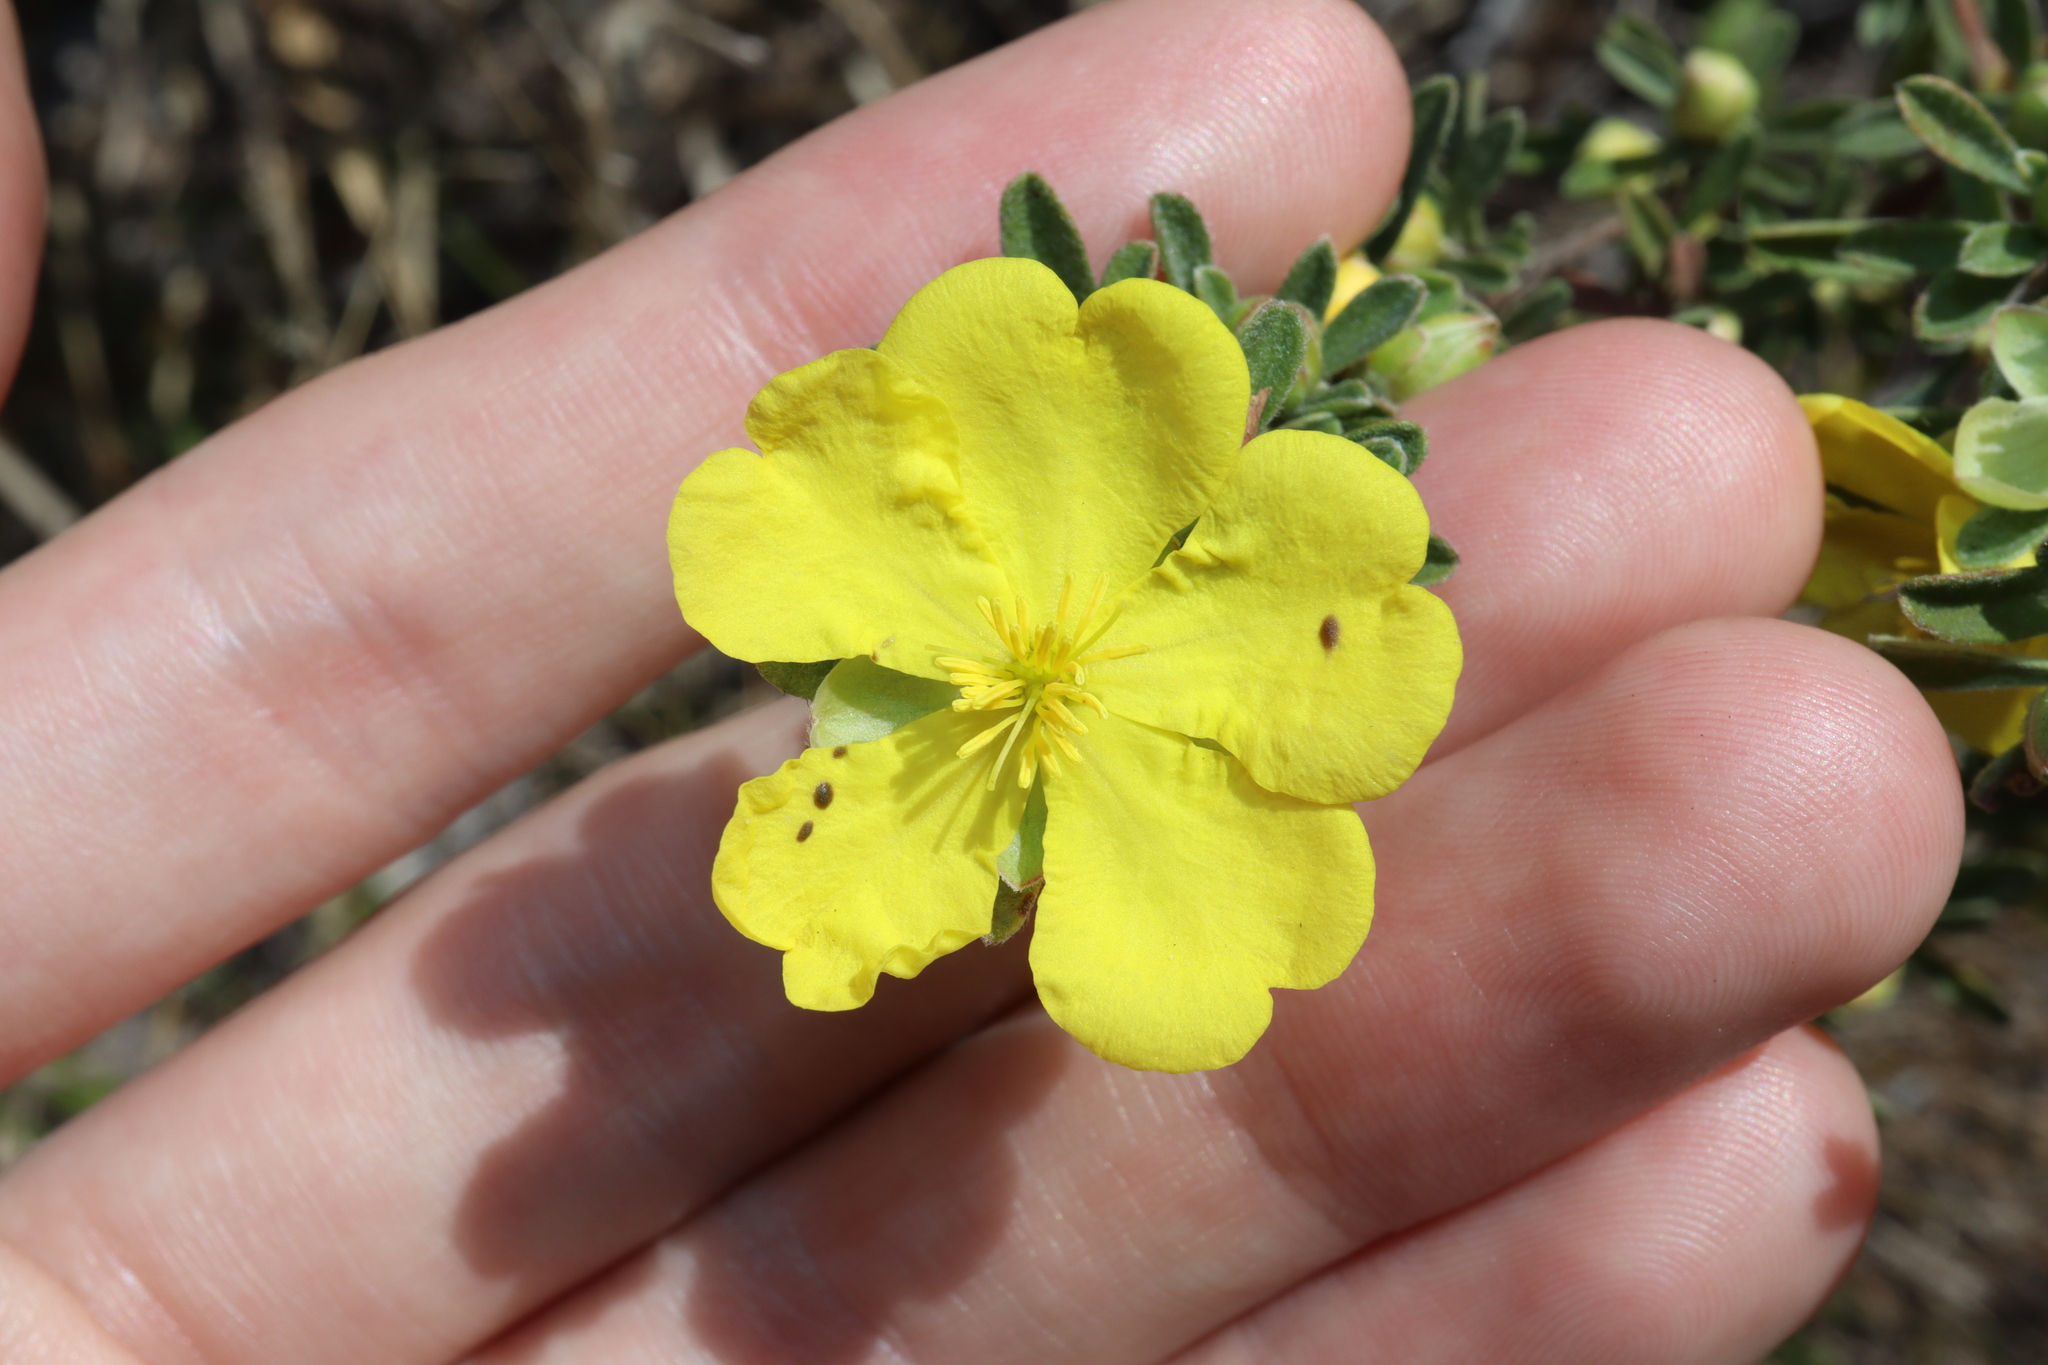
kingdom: Plantae
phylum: Tracheophyta
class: Magnoliopsida
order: Dilleniales
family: Dilleniaceae
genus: Hibbertia
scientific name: Hibbertia obtusifolia
